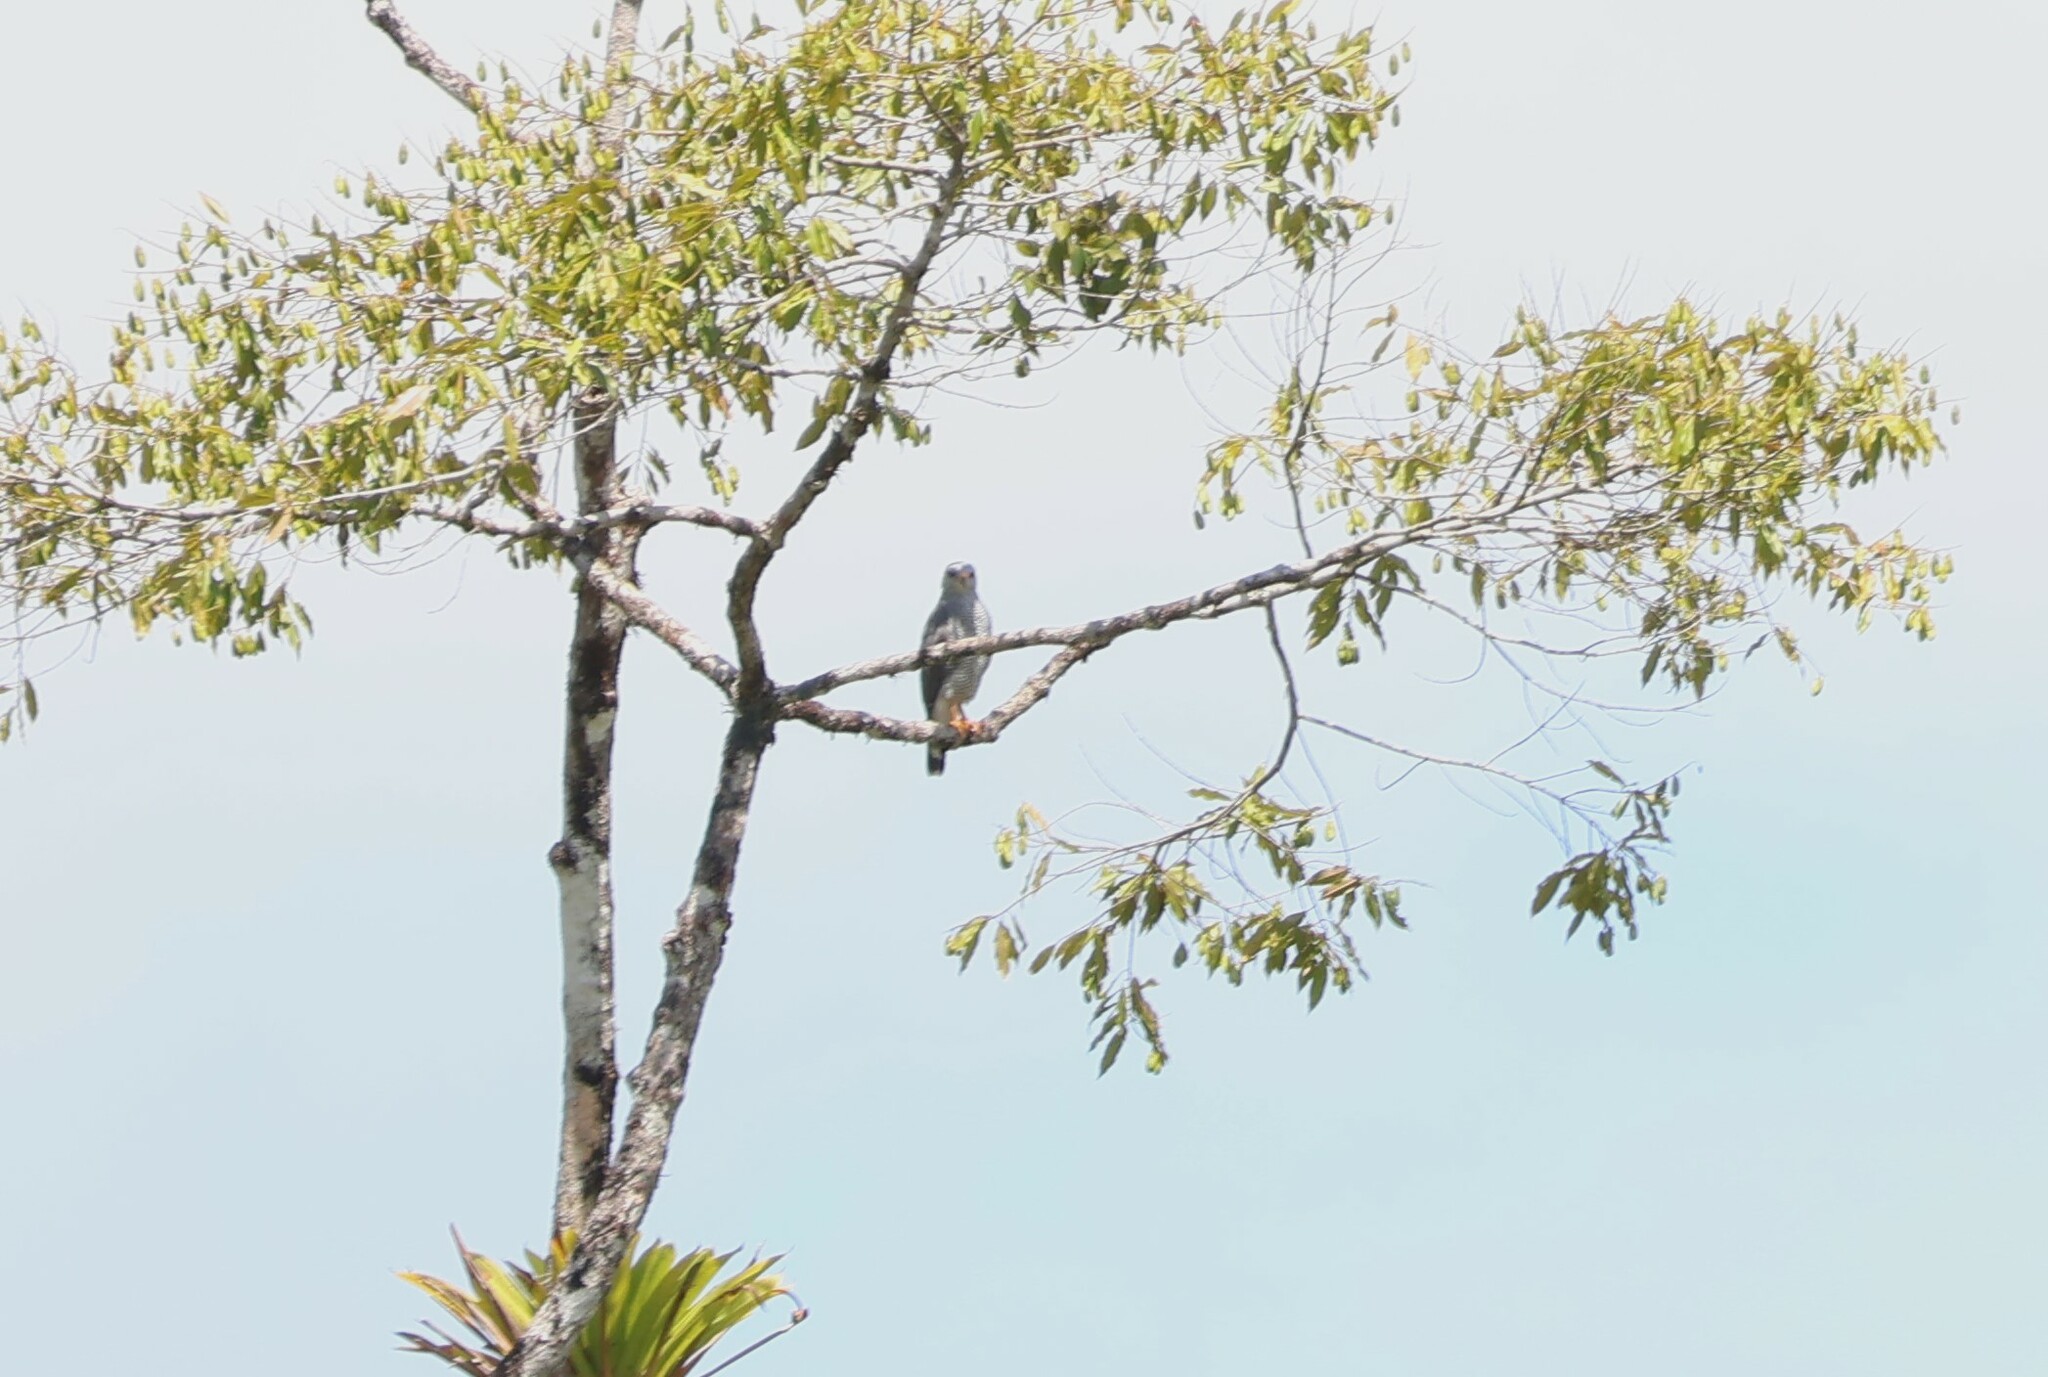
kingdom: Animalia
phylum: Chordata
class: Aves
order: Accipitriformes
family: Accipitridae
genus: Buteo
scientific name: Buteo nitidus
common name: Grey-lined hawk
